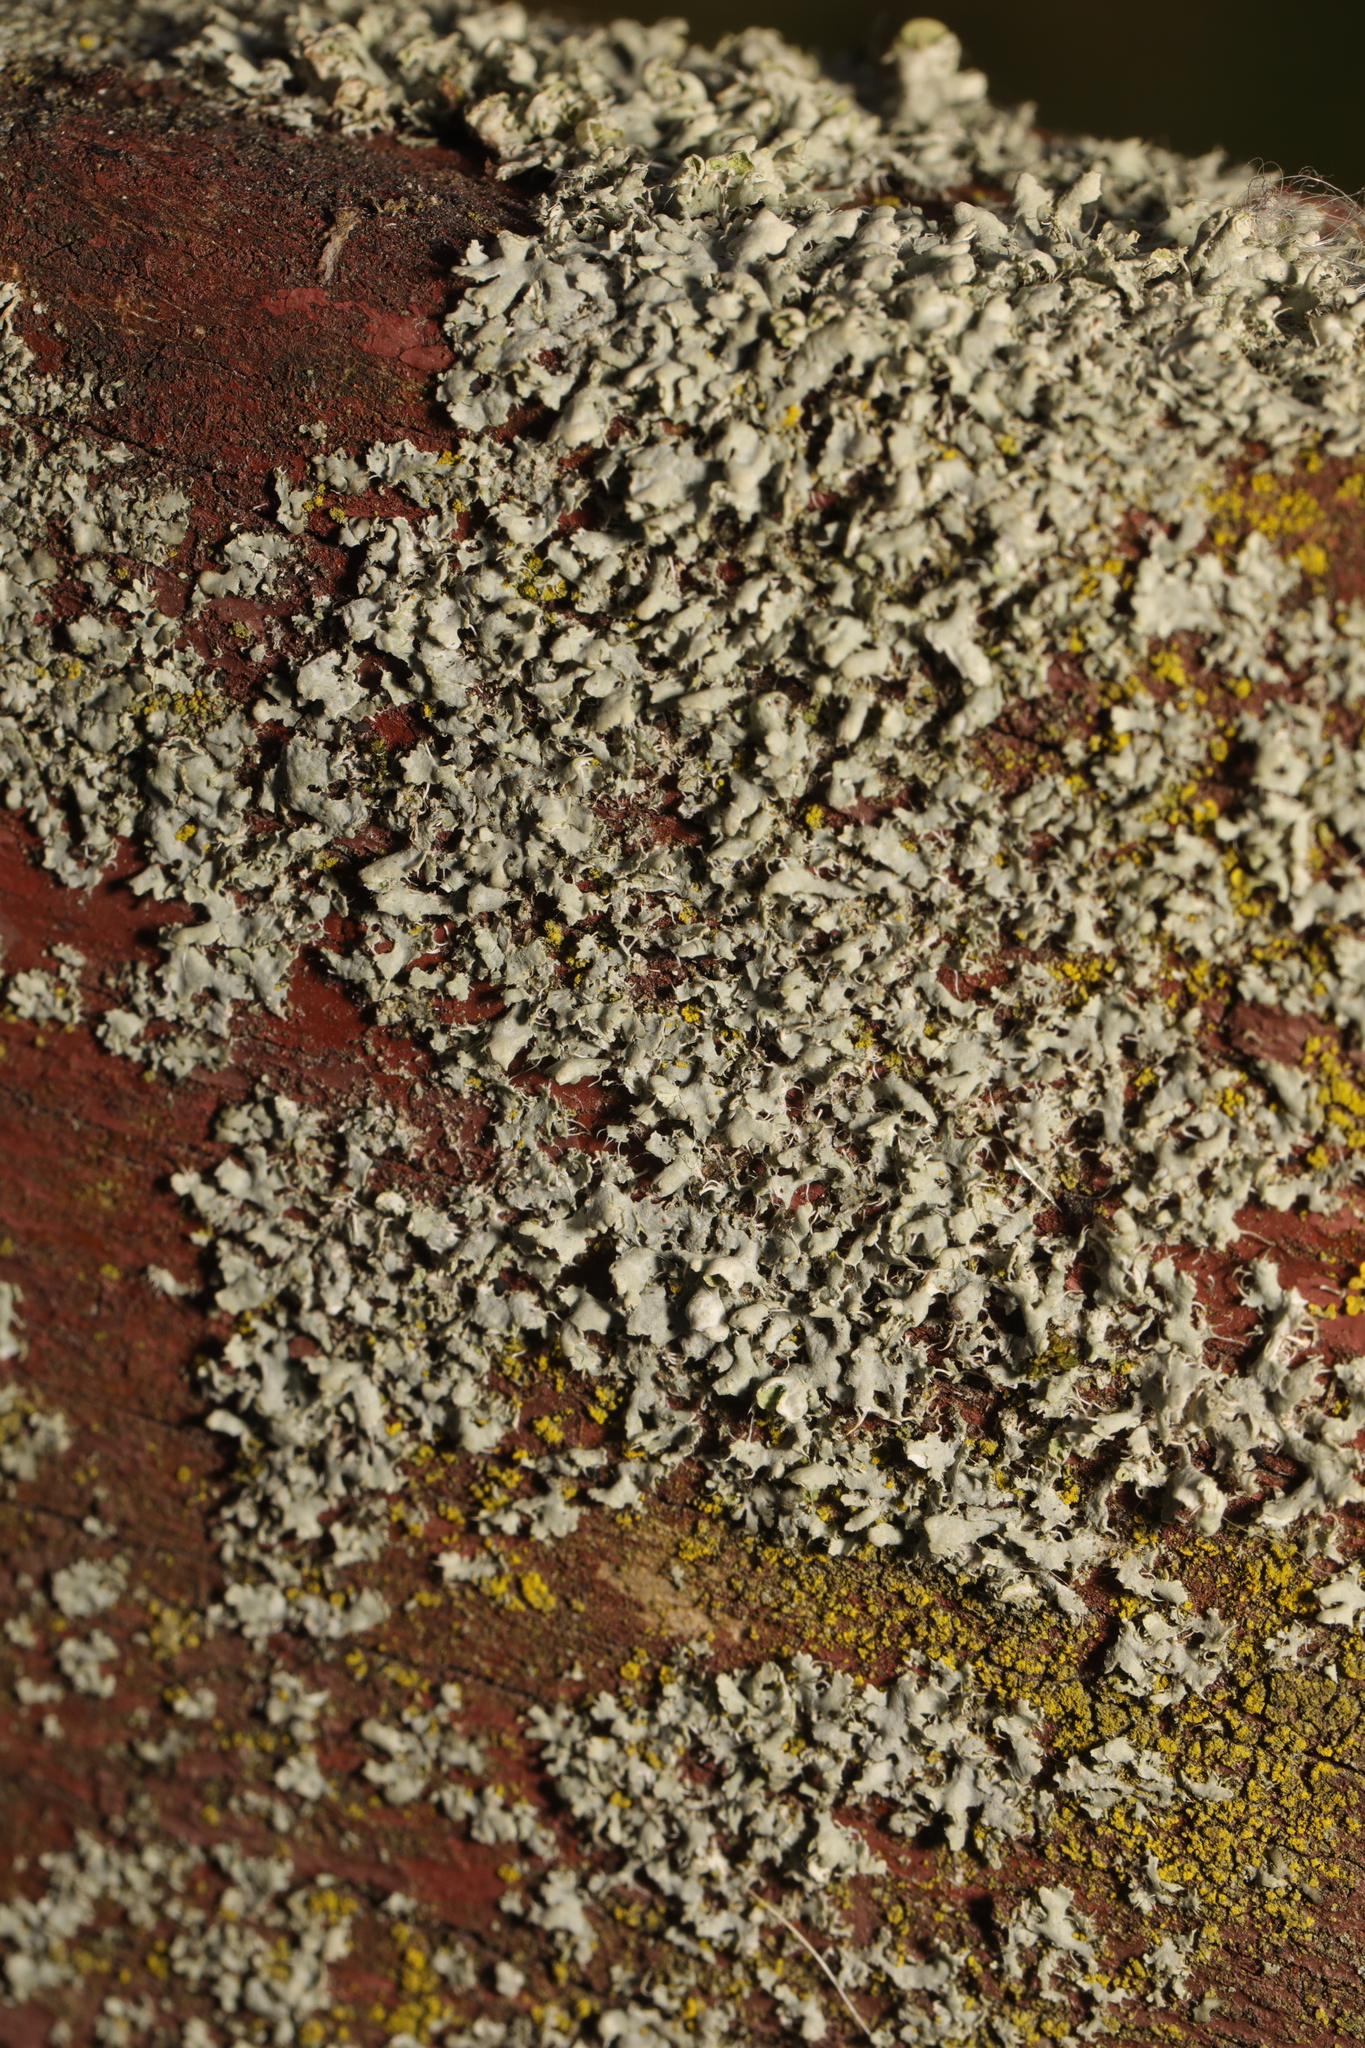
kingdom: Fungi
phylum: Ascomycota
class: Lecanoromycetes
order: Caliciales
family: Physciaceae
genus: Physcia
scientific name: Physcia adscendens
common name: Hooded rosette lichen
